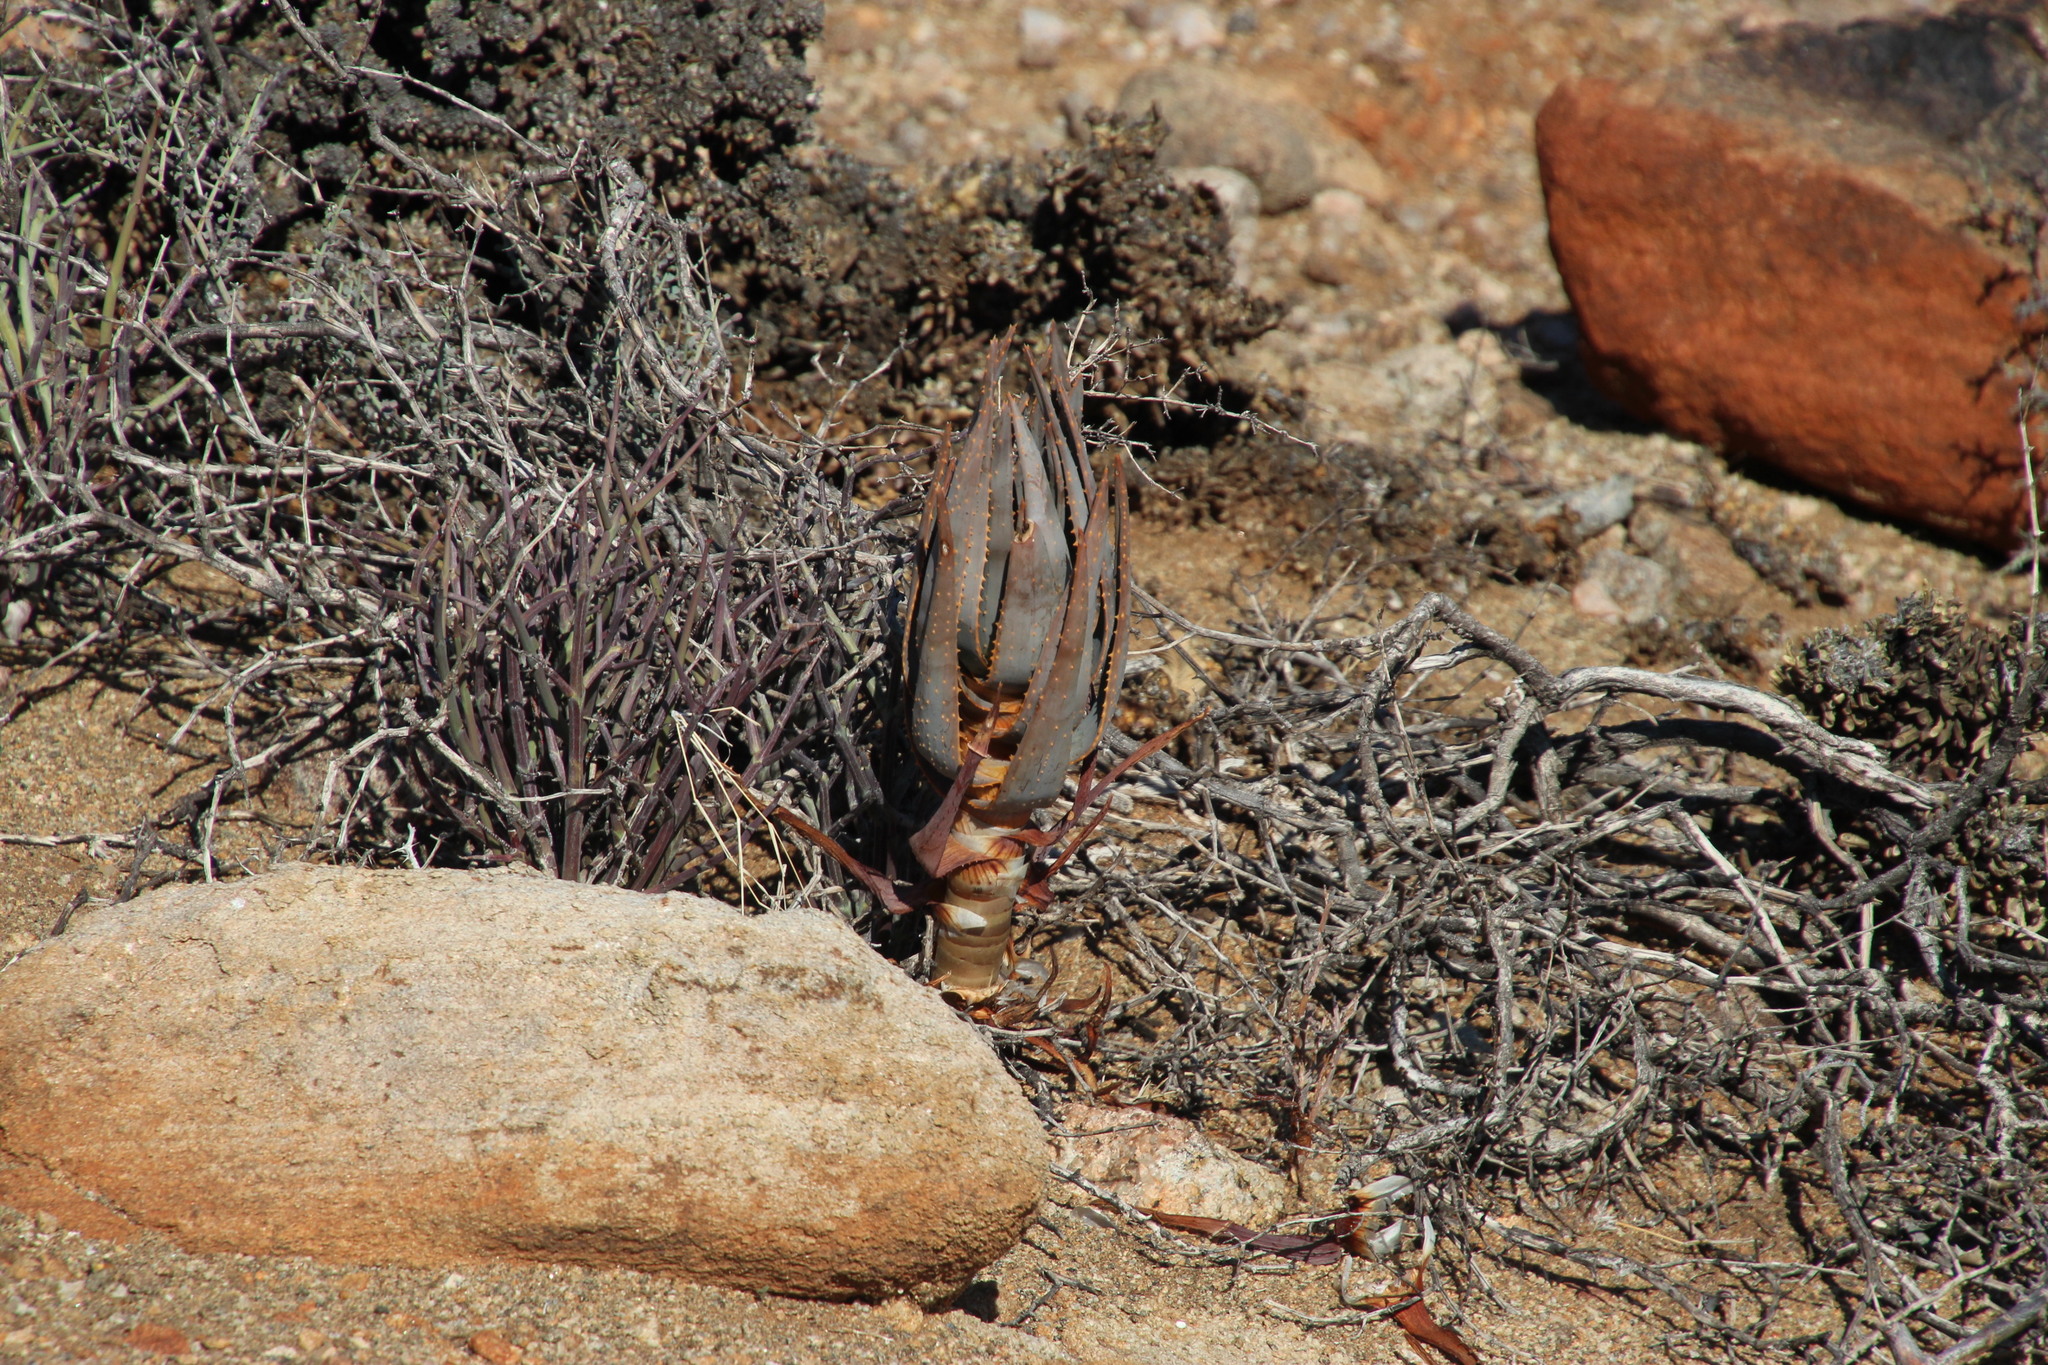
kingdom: Plantae
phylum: Tracheophyta
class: Liliopsida
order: Asparagales
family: Asphodelaceae
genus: Aloidendron
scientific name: Aloidendron dichotomum
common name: Quiver tree
